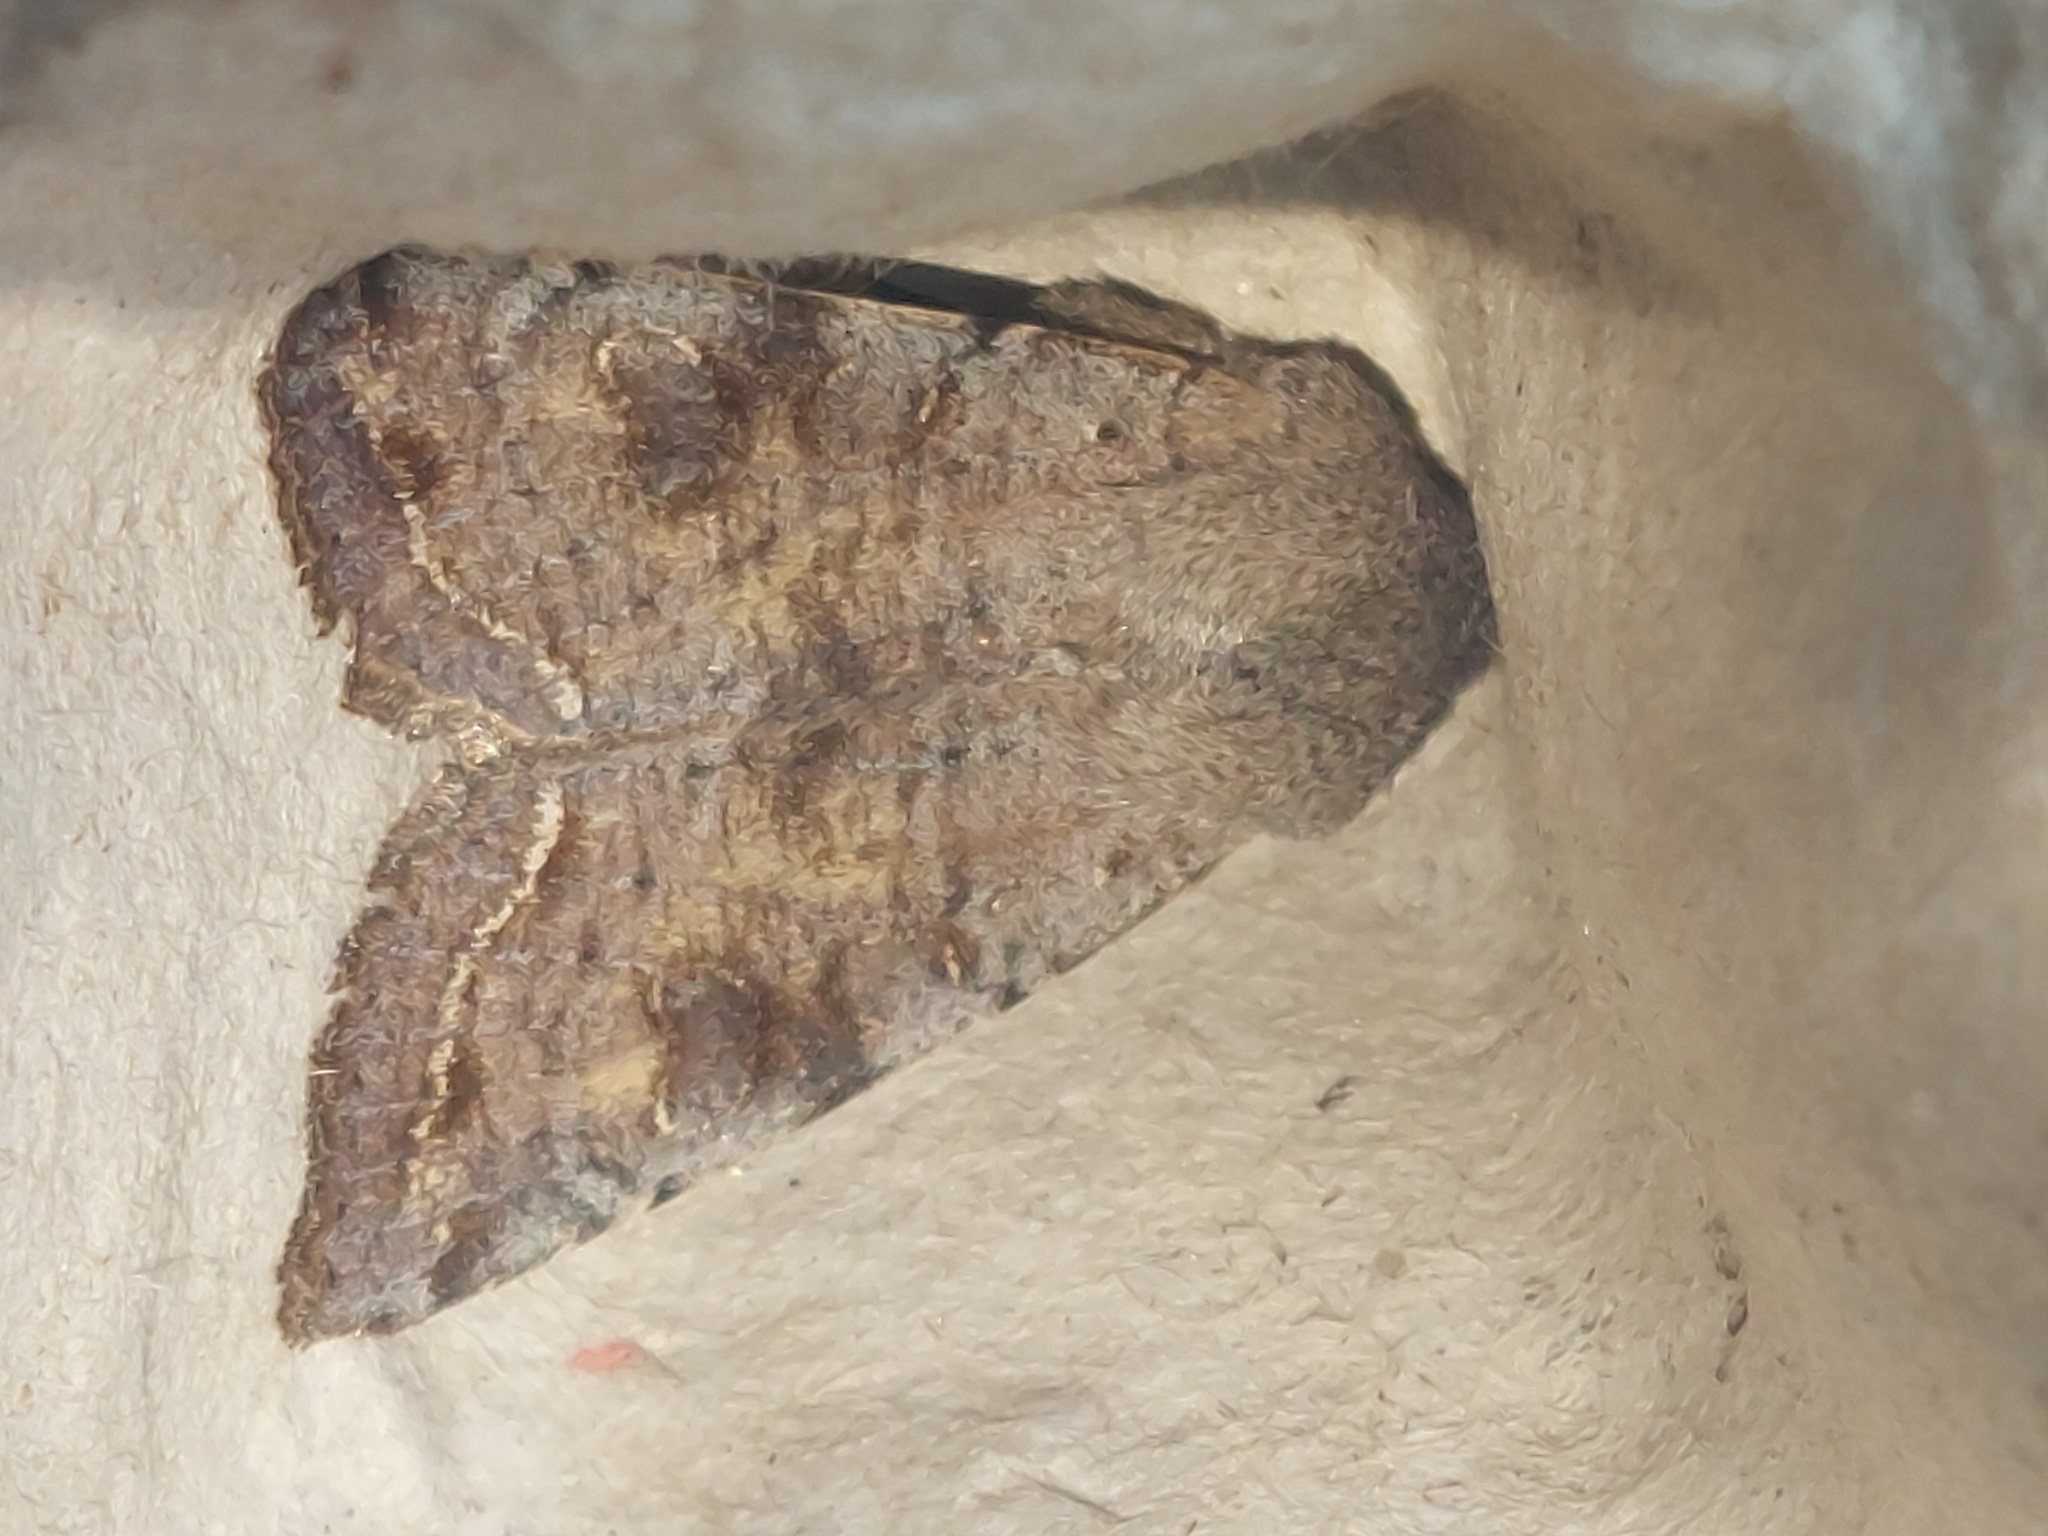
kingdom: Animalia
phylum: Arthropoda
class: Insecta
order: Lepidoptera
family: Noctuidae
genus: Orthosia
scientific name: Orthosia incerta
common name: Clouded drab
